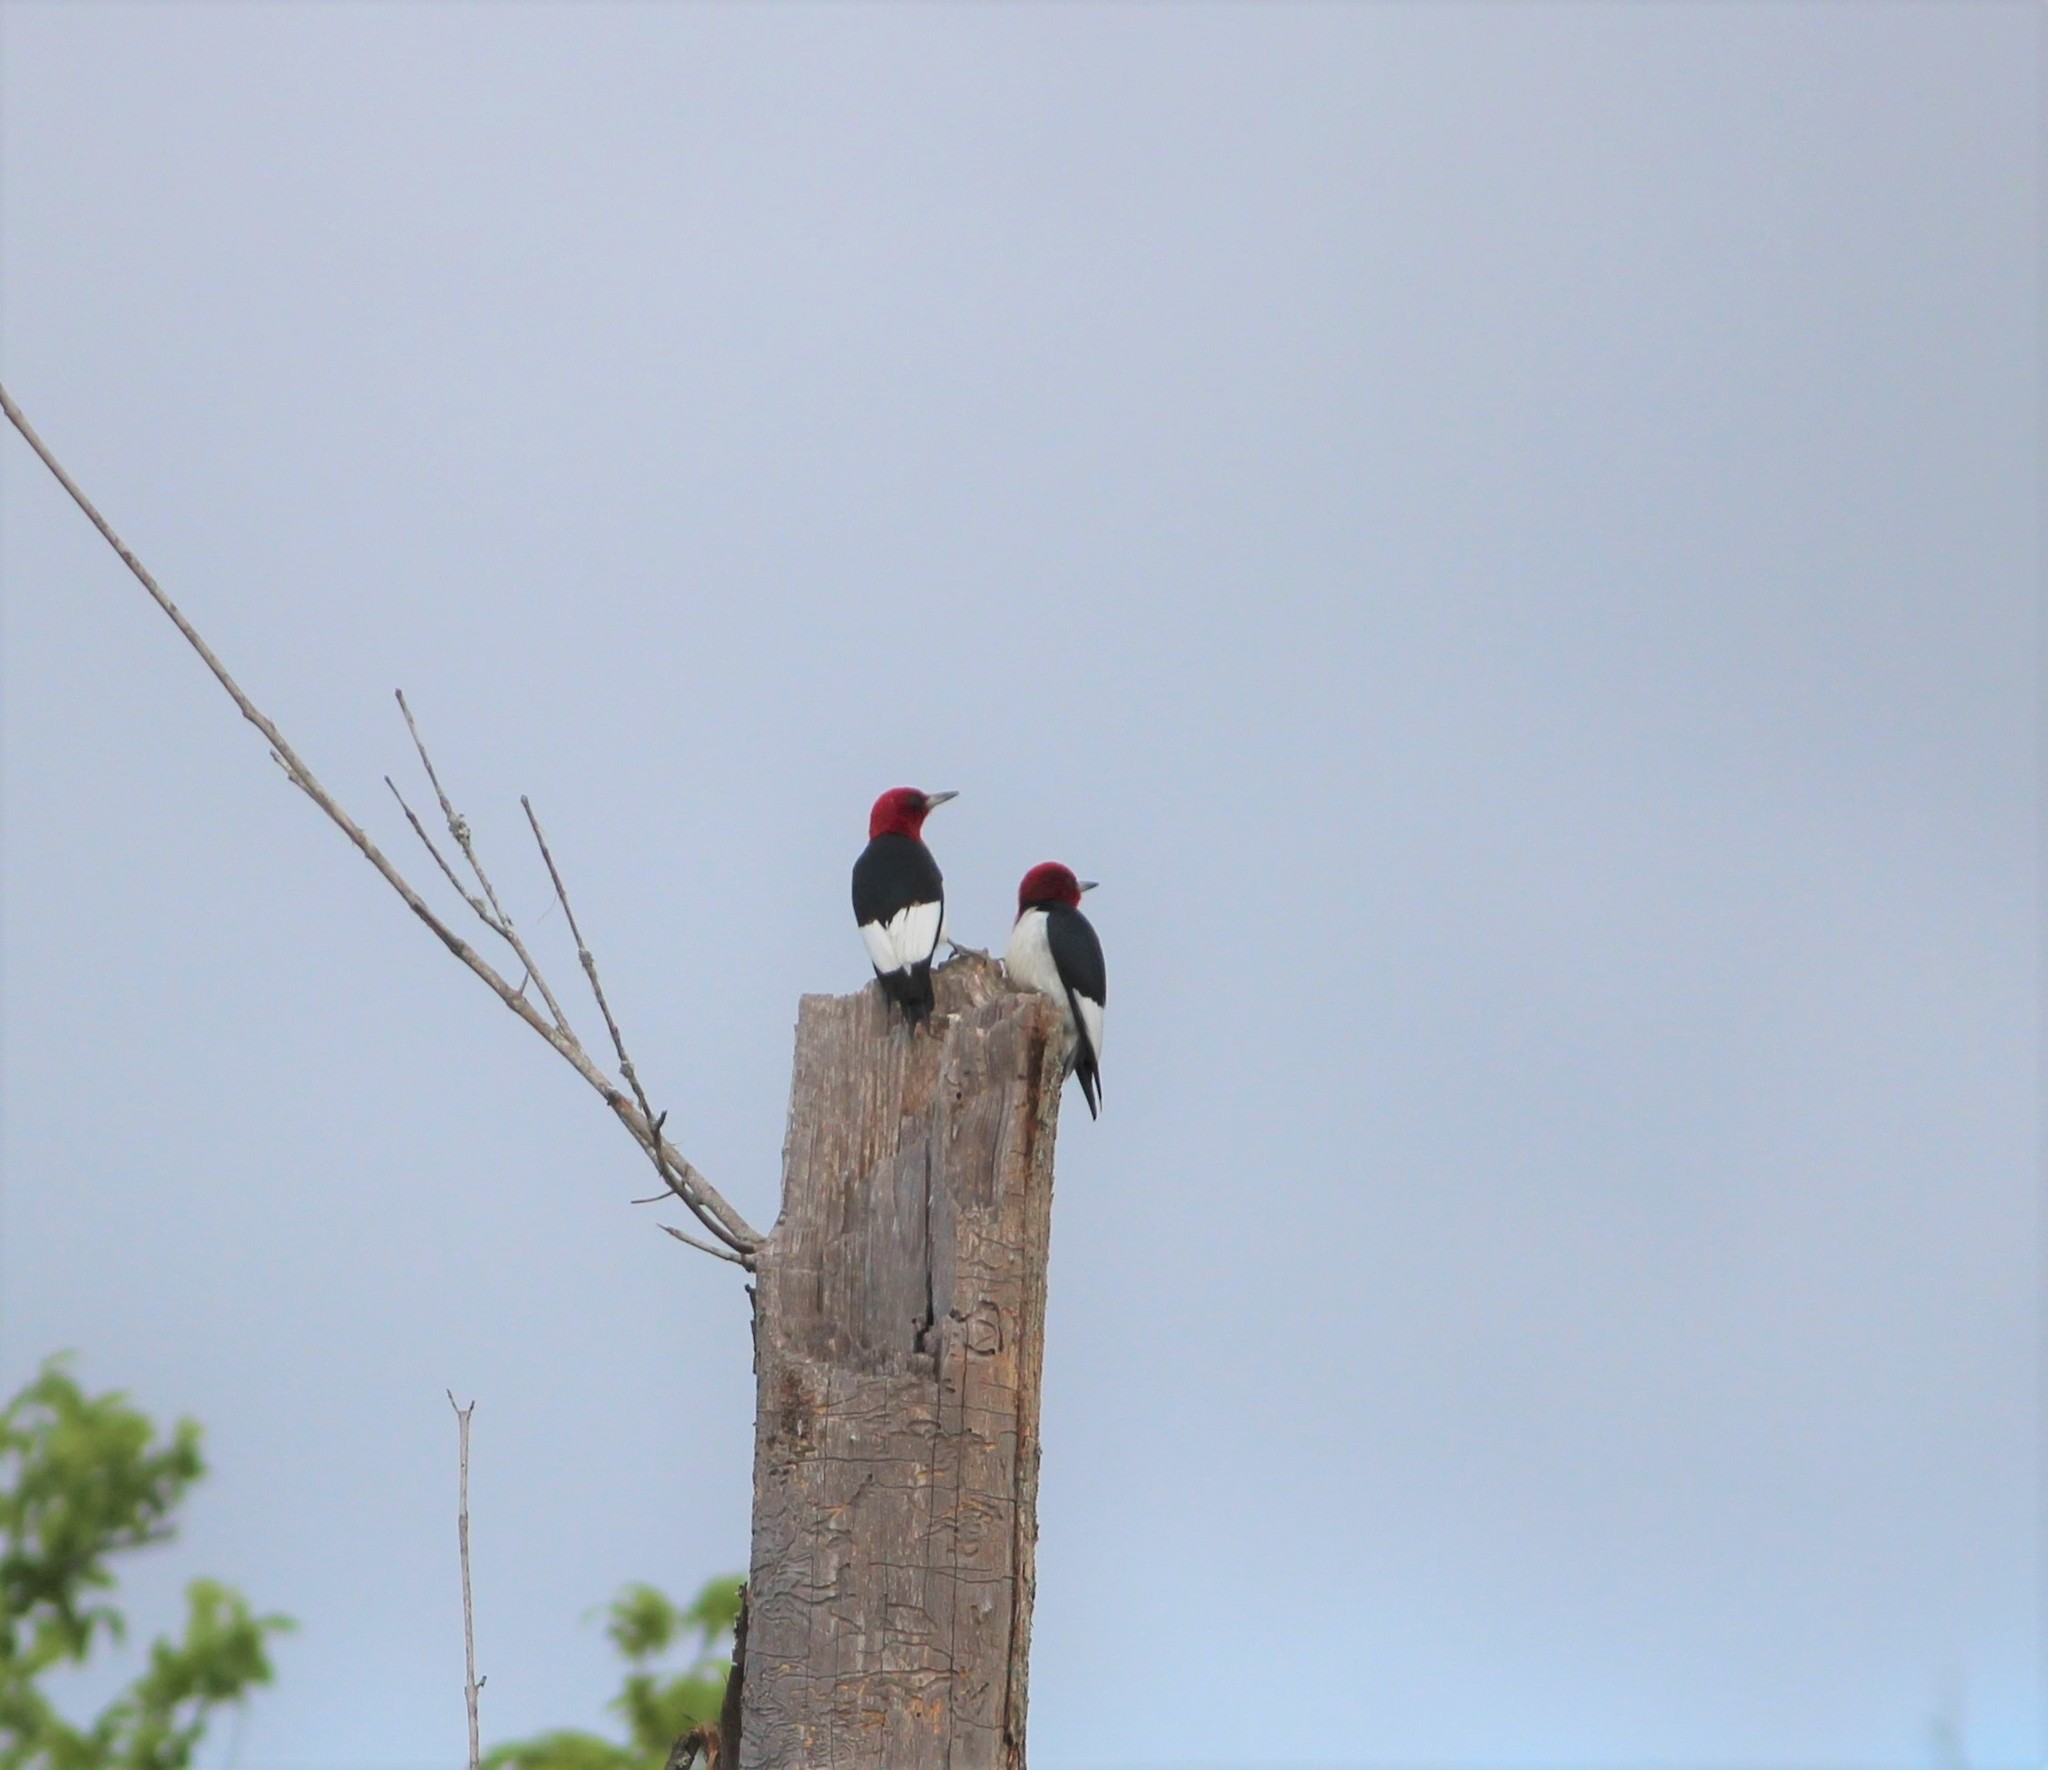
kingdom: Animalia
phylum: Chordata
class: Aves
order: Piciformes
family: Picidae
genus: Melanerpes
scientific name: Melanerpes erythrocephalus
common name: Red-headed woodpecker
